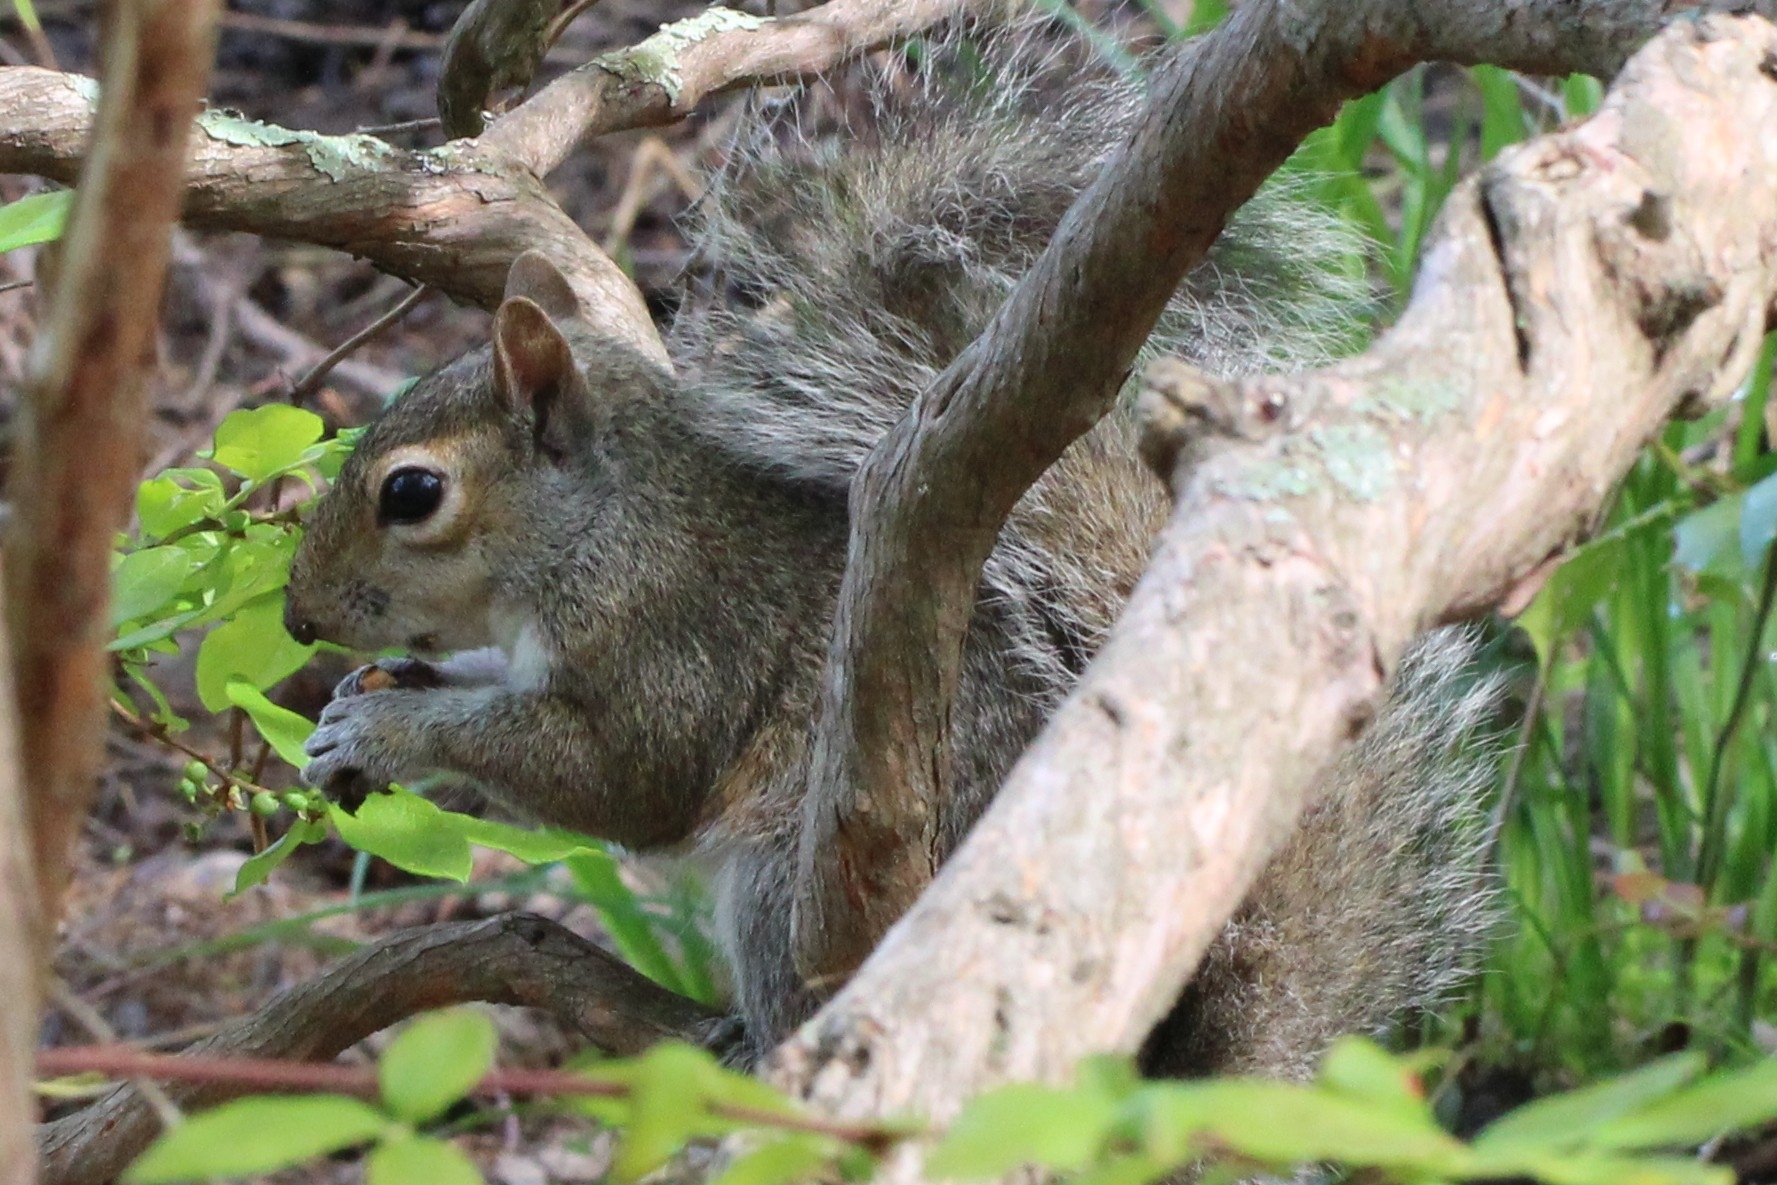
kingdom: Animalia
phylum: Chordata
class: Mammalia
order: Rodentia
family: Sciuridae
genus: Sciurus
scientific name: Sciurus carolinensis
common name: Eastern gray squirrel
